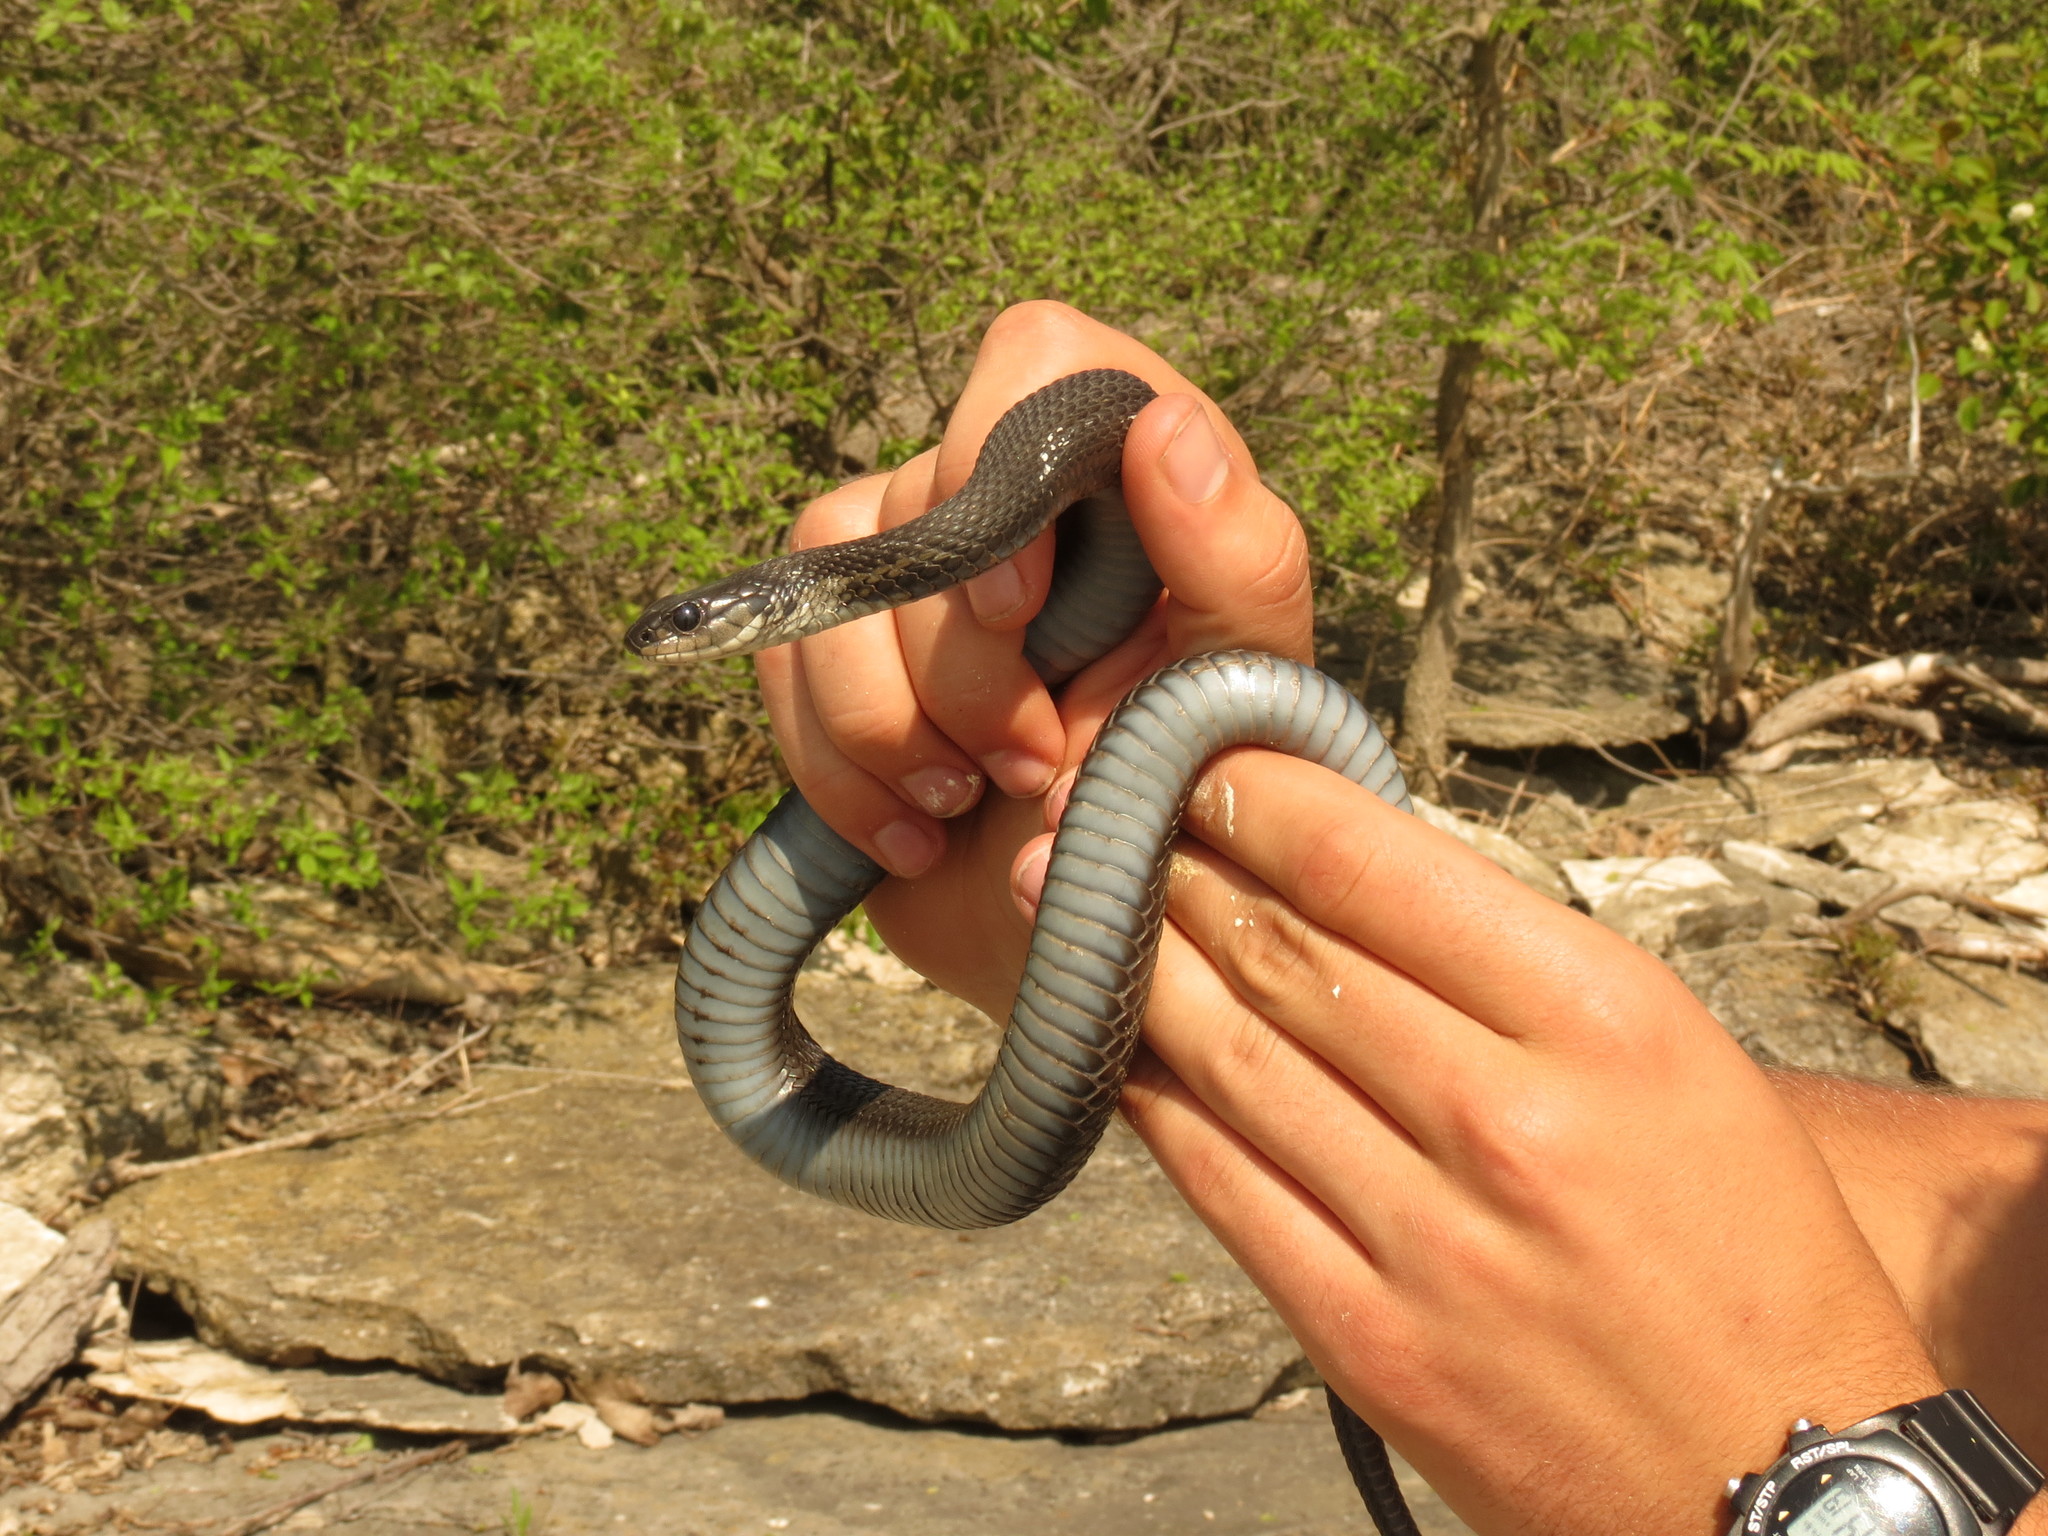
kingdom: Animalia
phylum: Chordata
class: Squamata
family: Colubridae
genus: Thamnophis
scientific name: Thamnophis sirtalis
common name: Common garter snake
